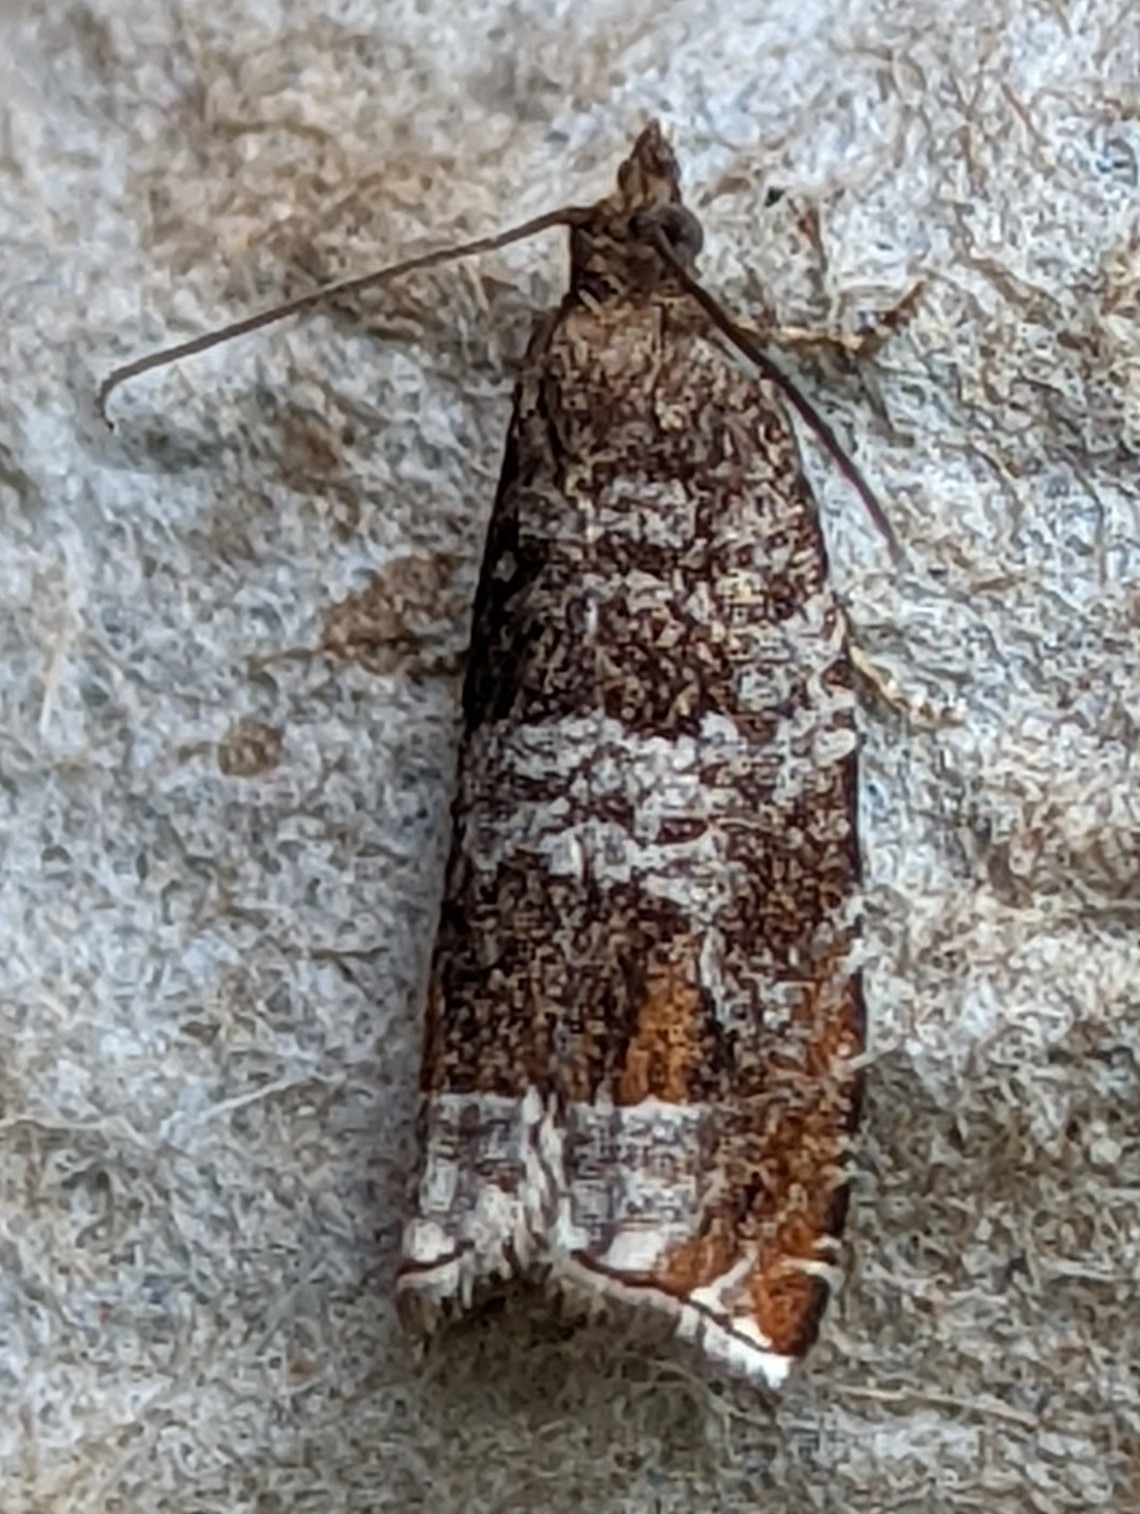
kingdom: Animalia
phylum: Arthropoda
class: Insecta
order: Lepidoptera
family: Tortricidae
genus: Ancylis
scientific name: Ancylis achatana
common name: Triangle-marked roller
